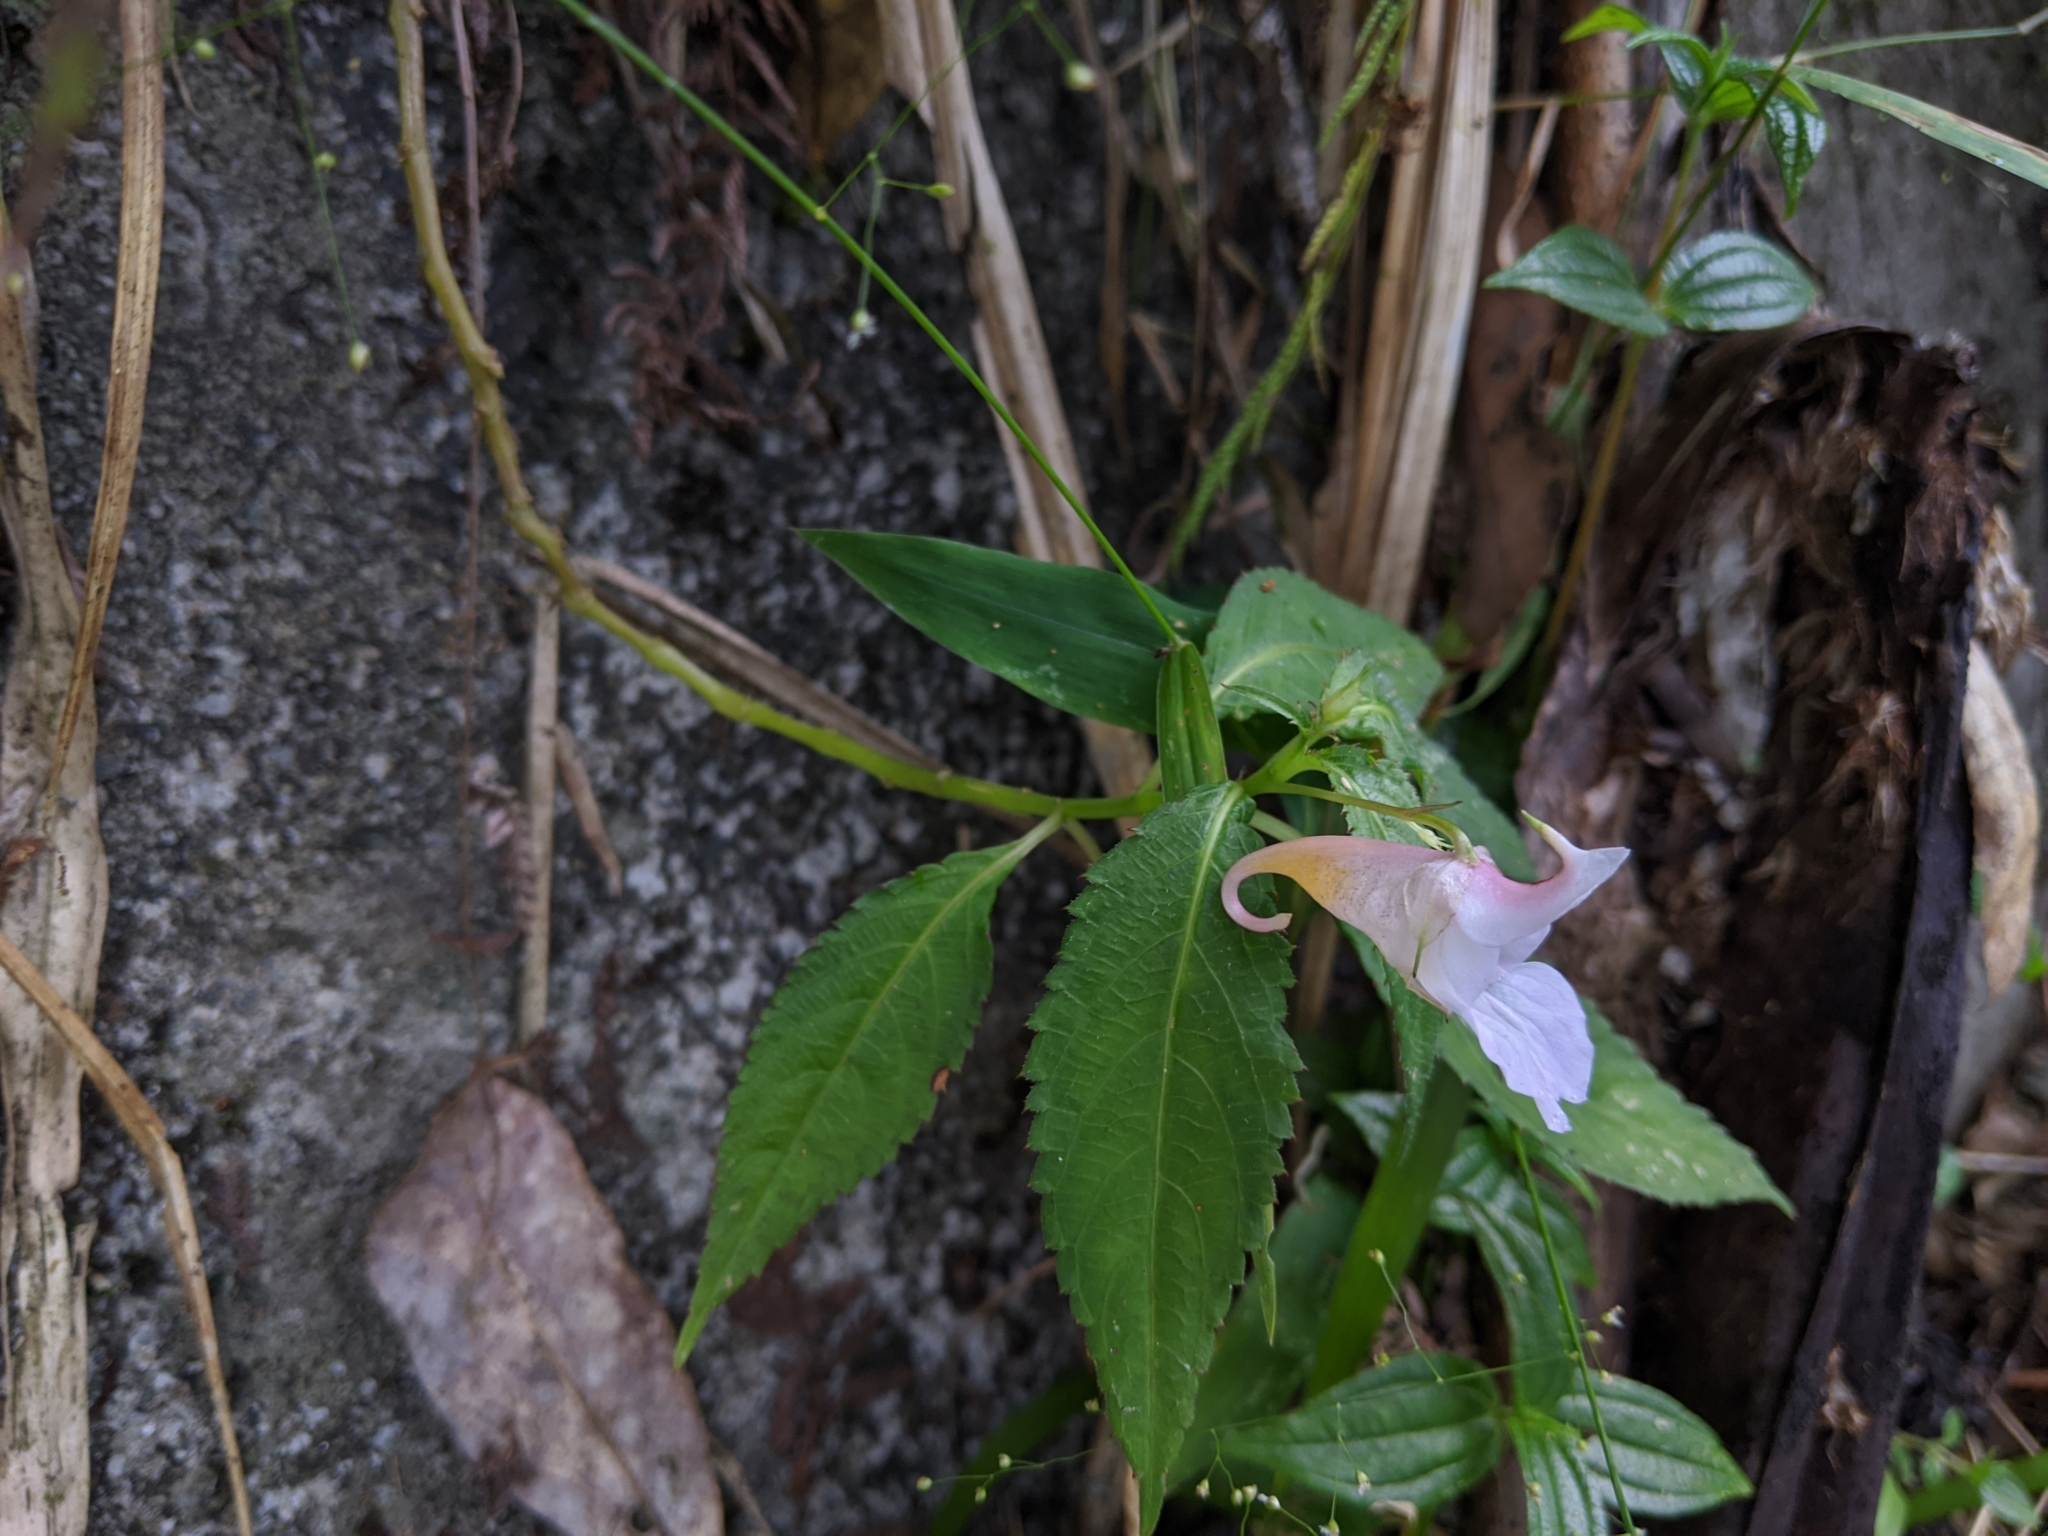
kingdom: Plantae
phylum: Tracheophyta
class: Magnoliopsida
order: Ericales
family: Balsaminaceae
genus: Impatiens
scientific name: Impatiens uniflora
